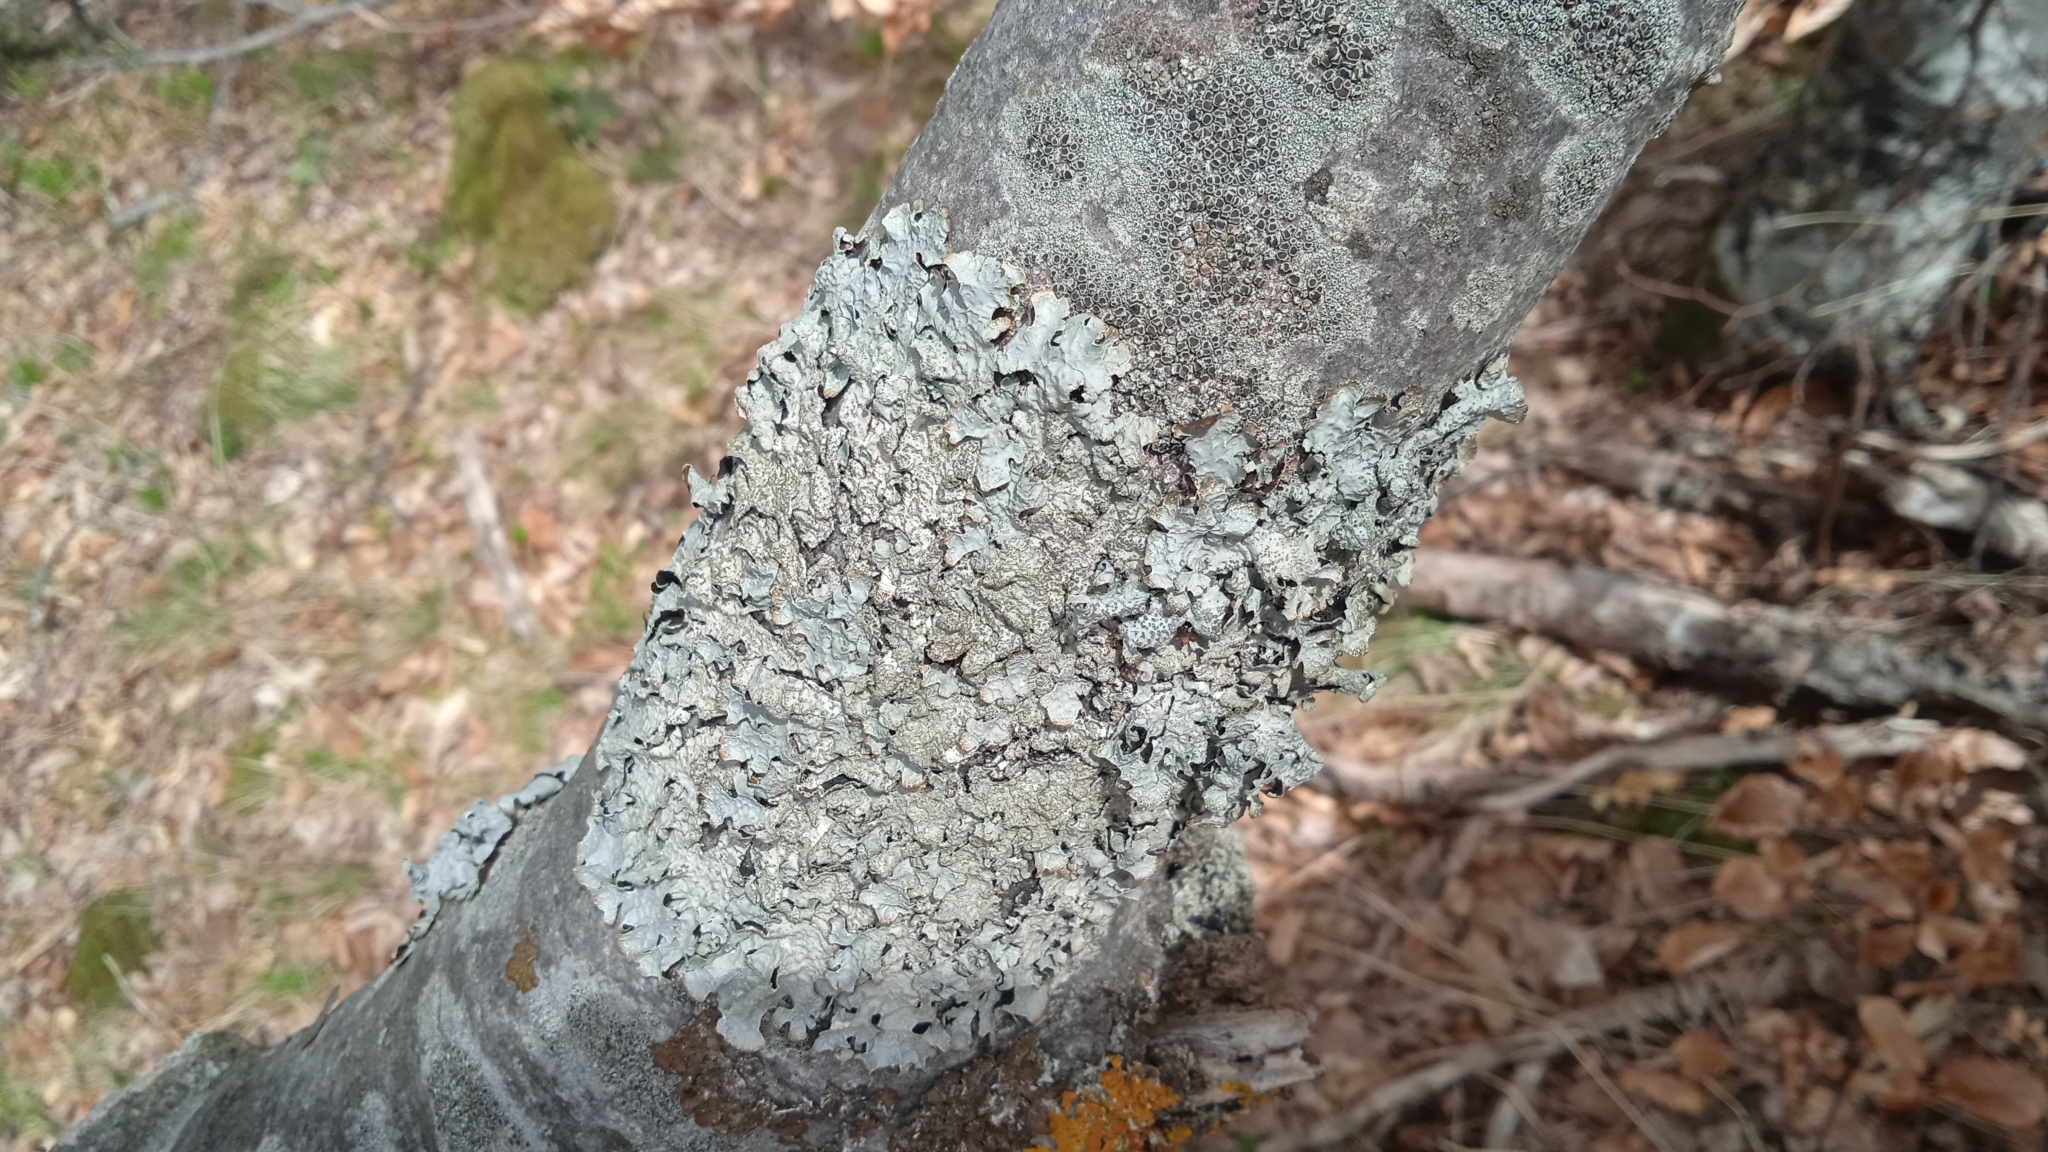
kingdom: Fungi
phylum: Ascomycota
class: Lecanoromycetes
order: Lecanorales
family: Parmeliaceae
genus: Parmelia
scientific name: Parmelia sulcata
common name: Netted shield lichen
